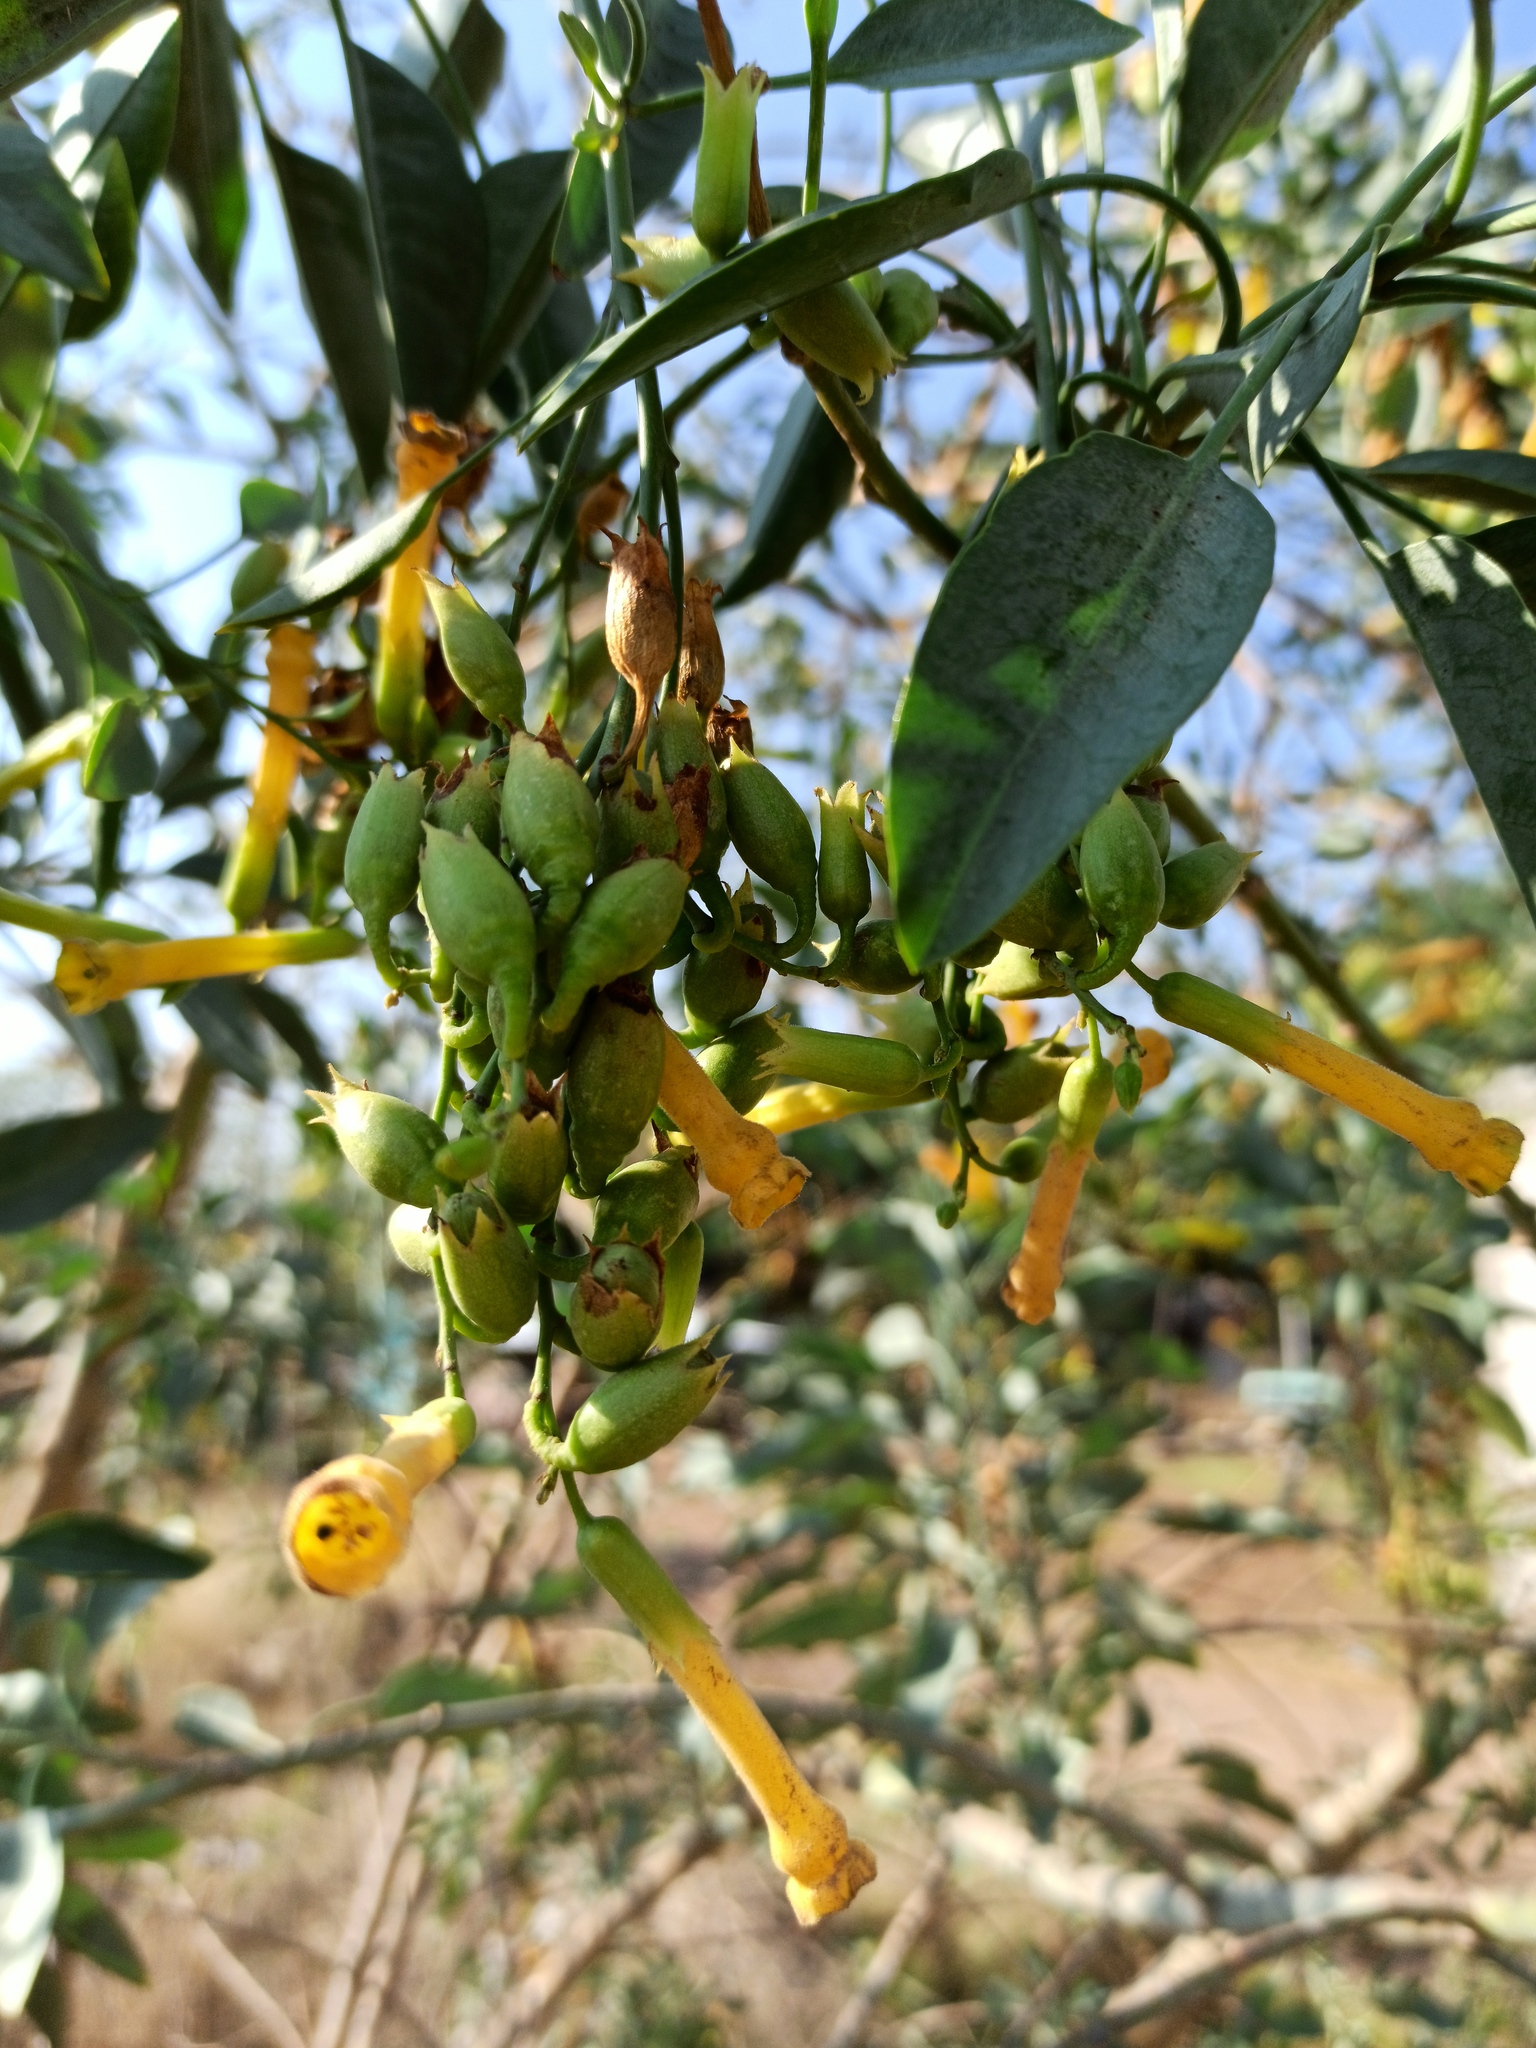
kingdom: Plantae
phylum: Tracheophyta
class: Magnoliopsida
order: Solanales
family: Solanaceae
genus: Nicotiana
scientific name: Nicotiana glauca
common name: Tree tobacco
